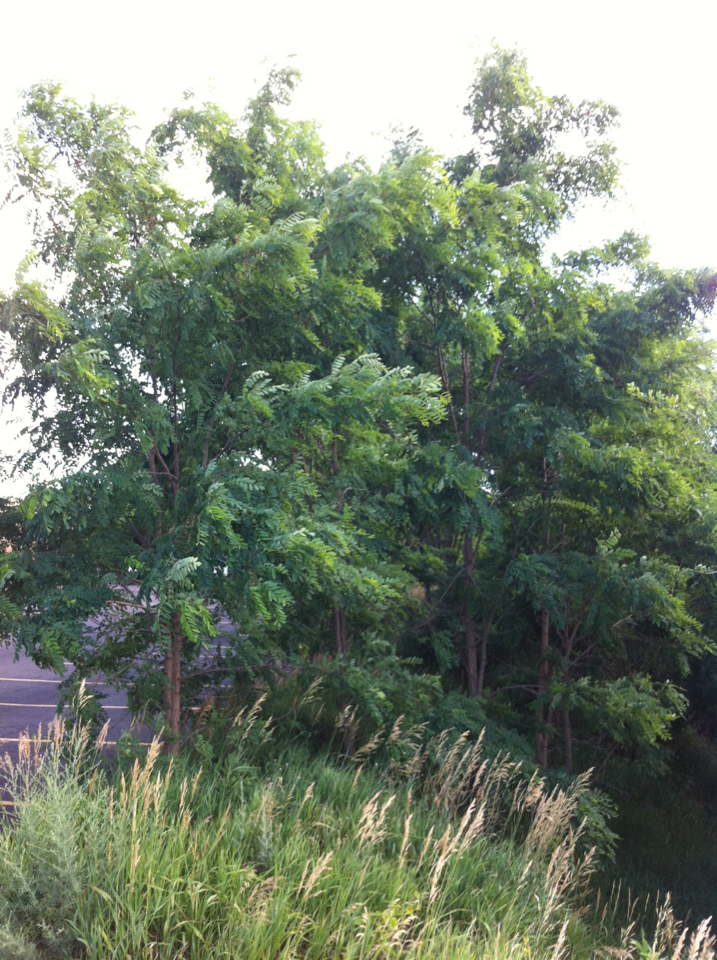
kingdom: Plantae
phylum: Tracheophyta
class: Magnoliopsida
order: Fabales
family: Fabaceae
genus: Robinia
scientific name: Robinia pseudoacacia
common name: Black locust
